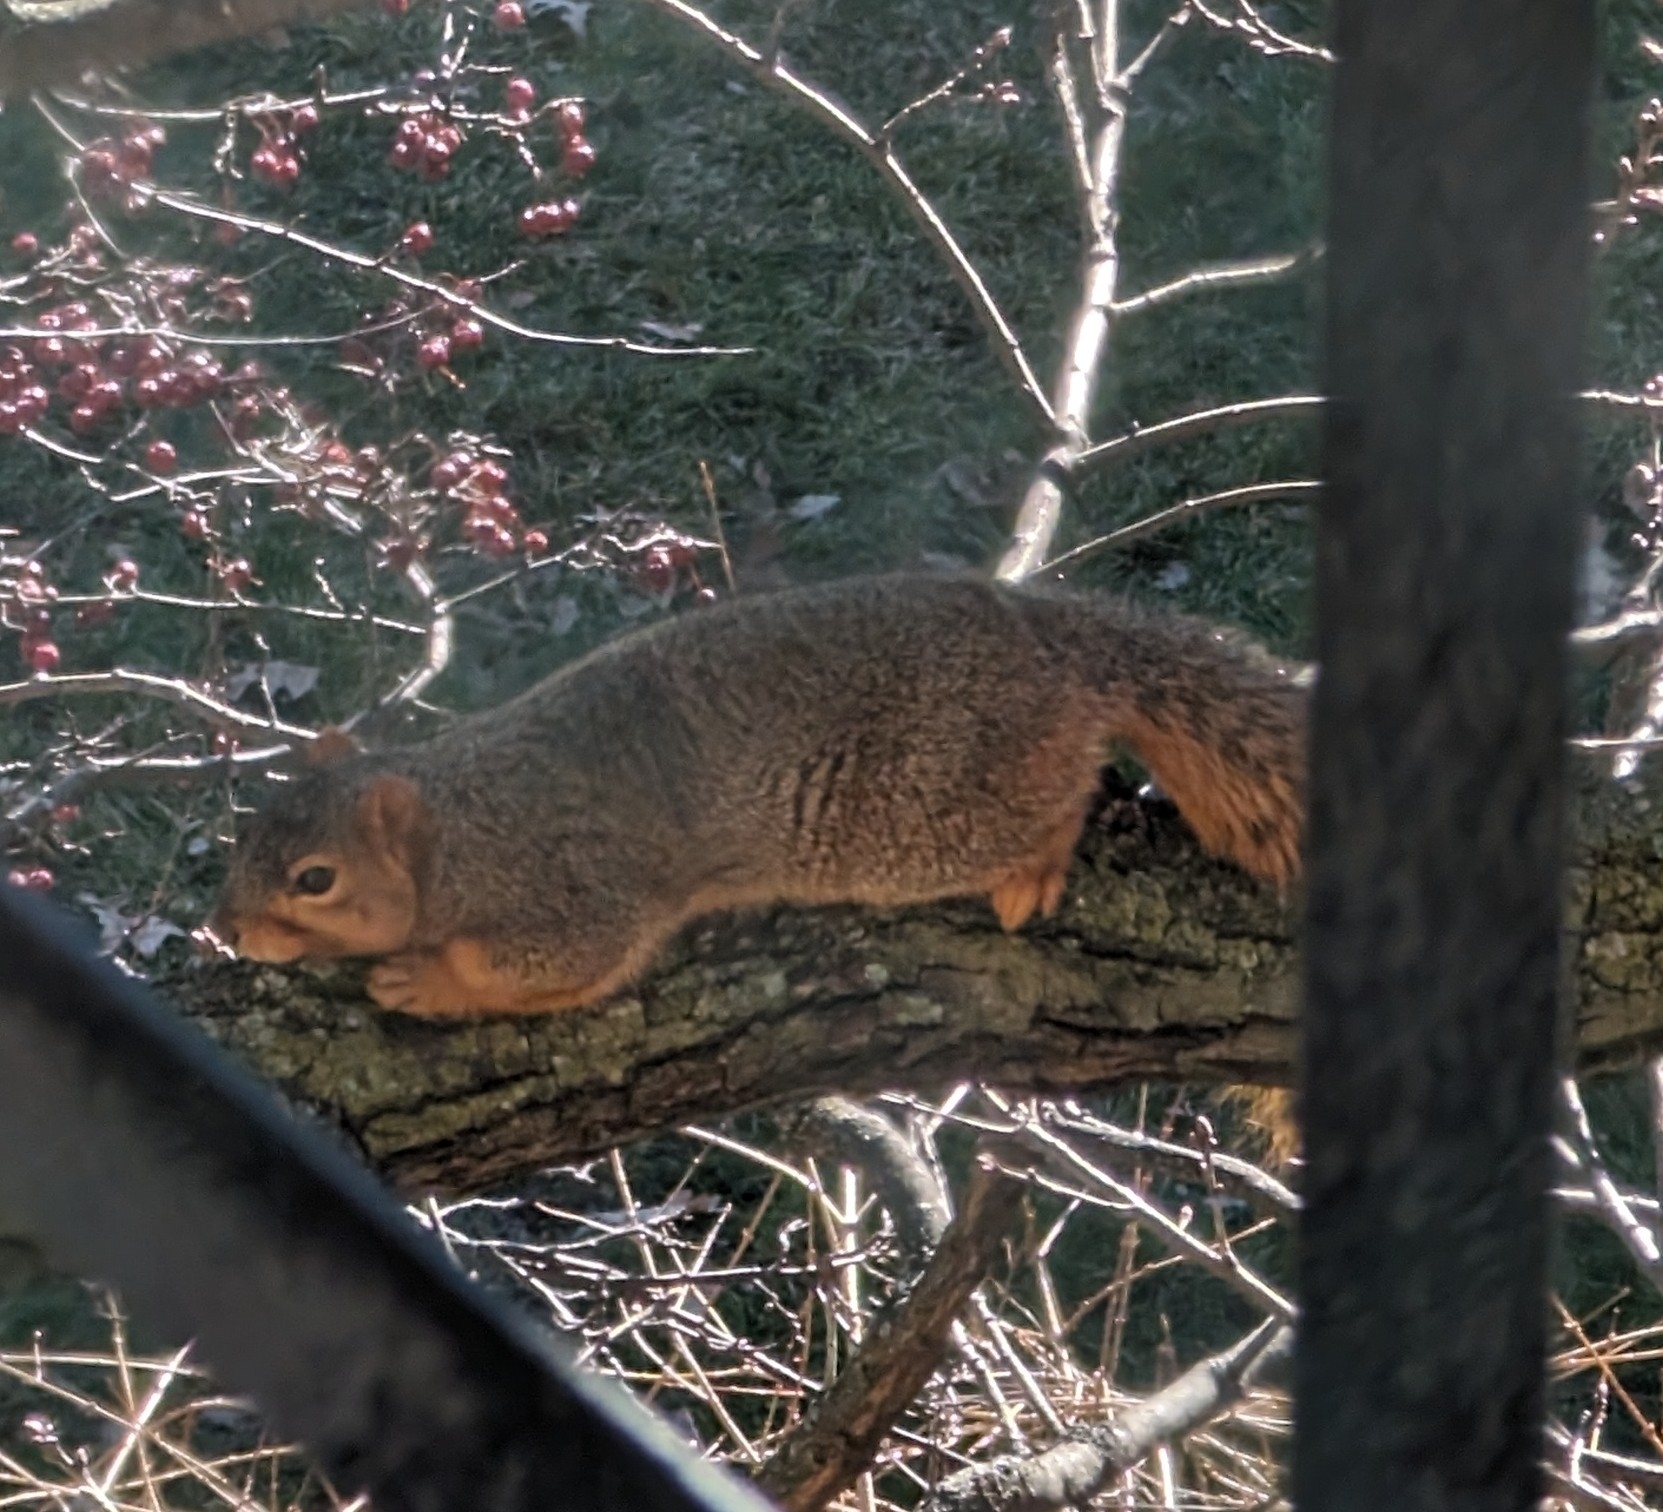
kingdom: Animalia
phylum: Chordata
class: Mammalia
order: Rodentia
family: Sciuridae
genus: Sciurus
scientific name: Sciurus niger
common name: Fox squirrel
